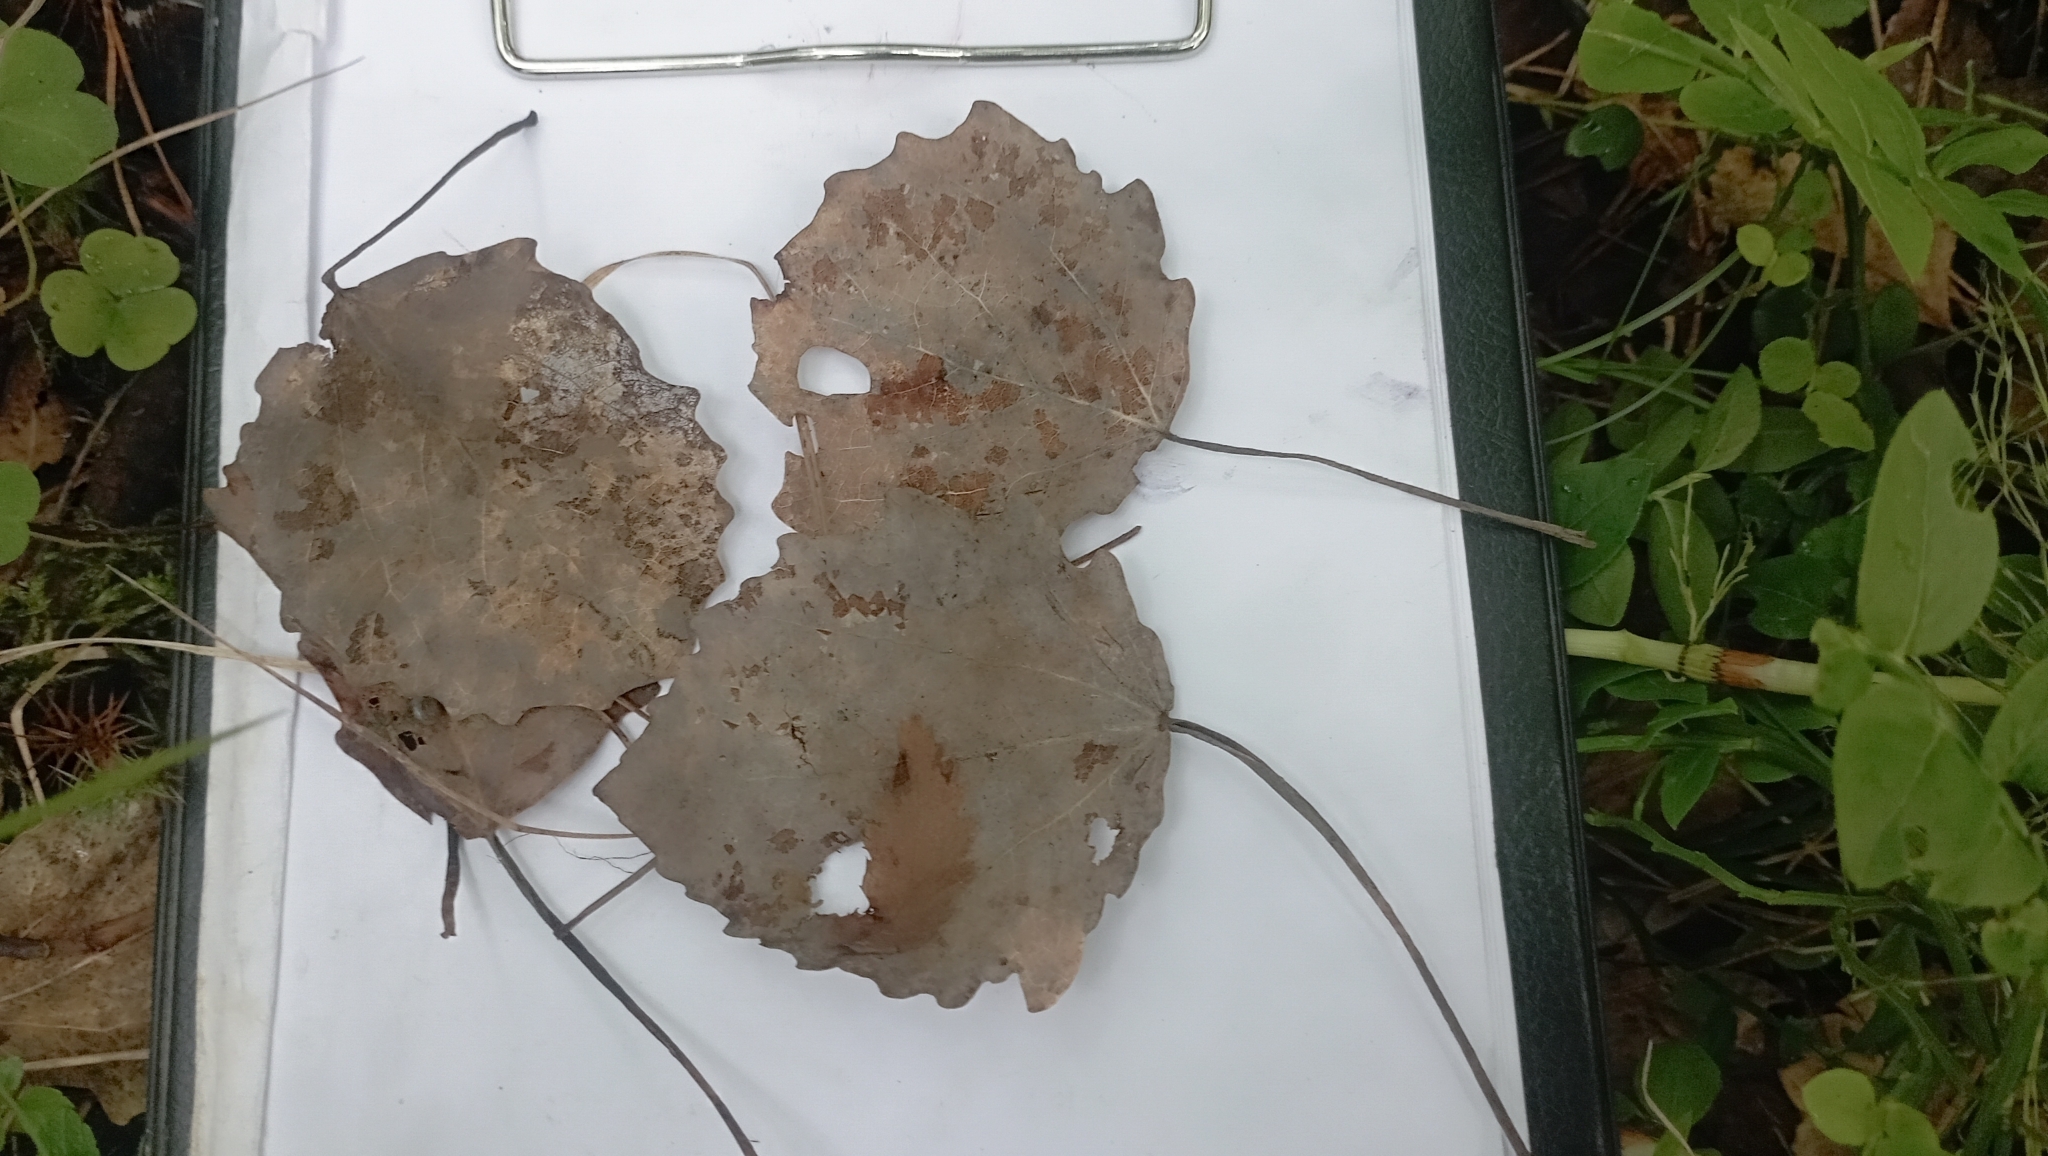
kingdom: Plantae
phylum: Tracheophyta
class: Magnoliopsida
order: Malpighiales
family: Salicaceae
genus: Populus
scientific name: Populus tremula
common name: European aspen
